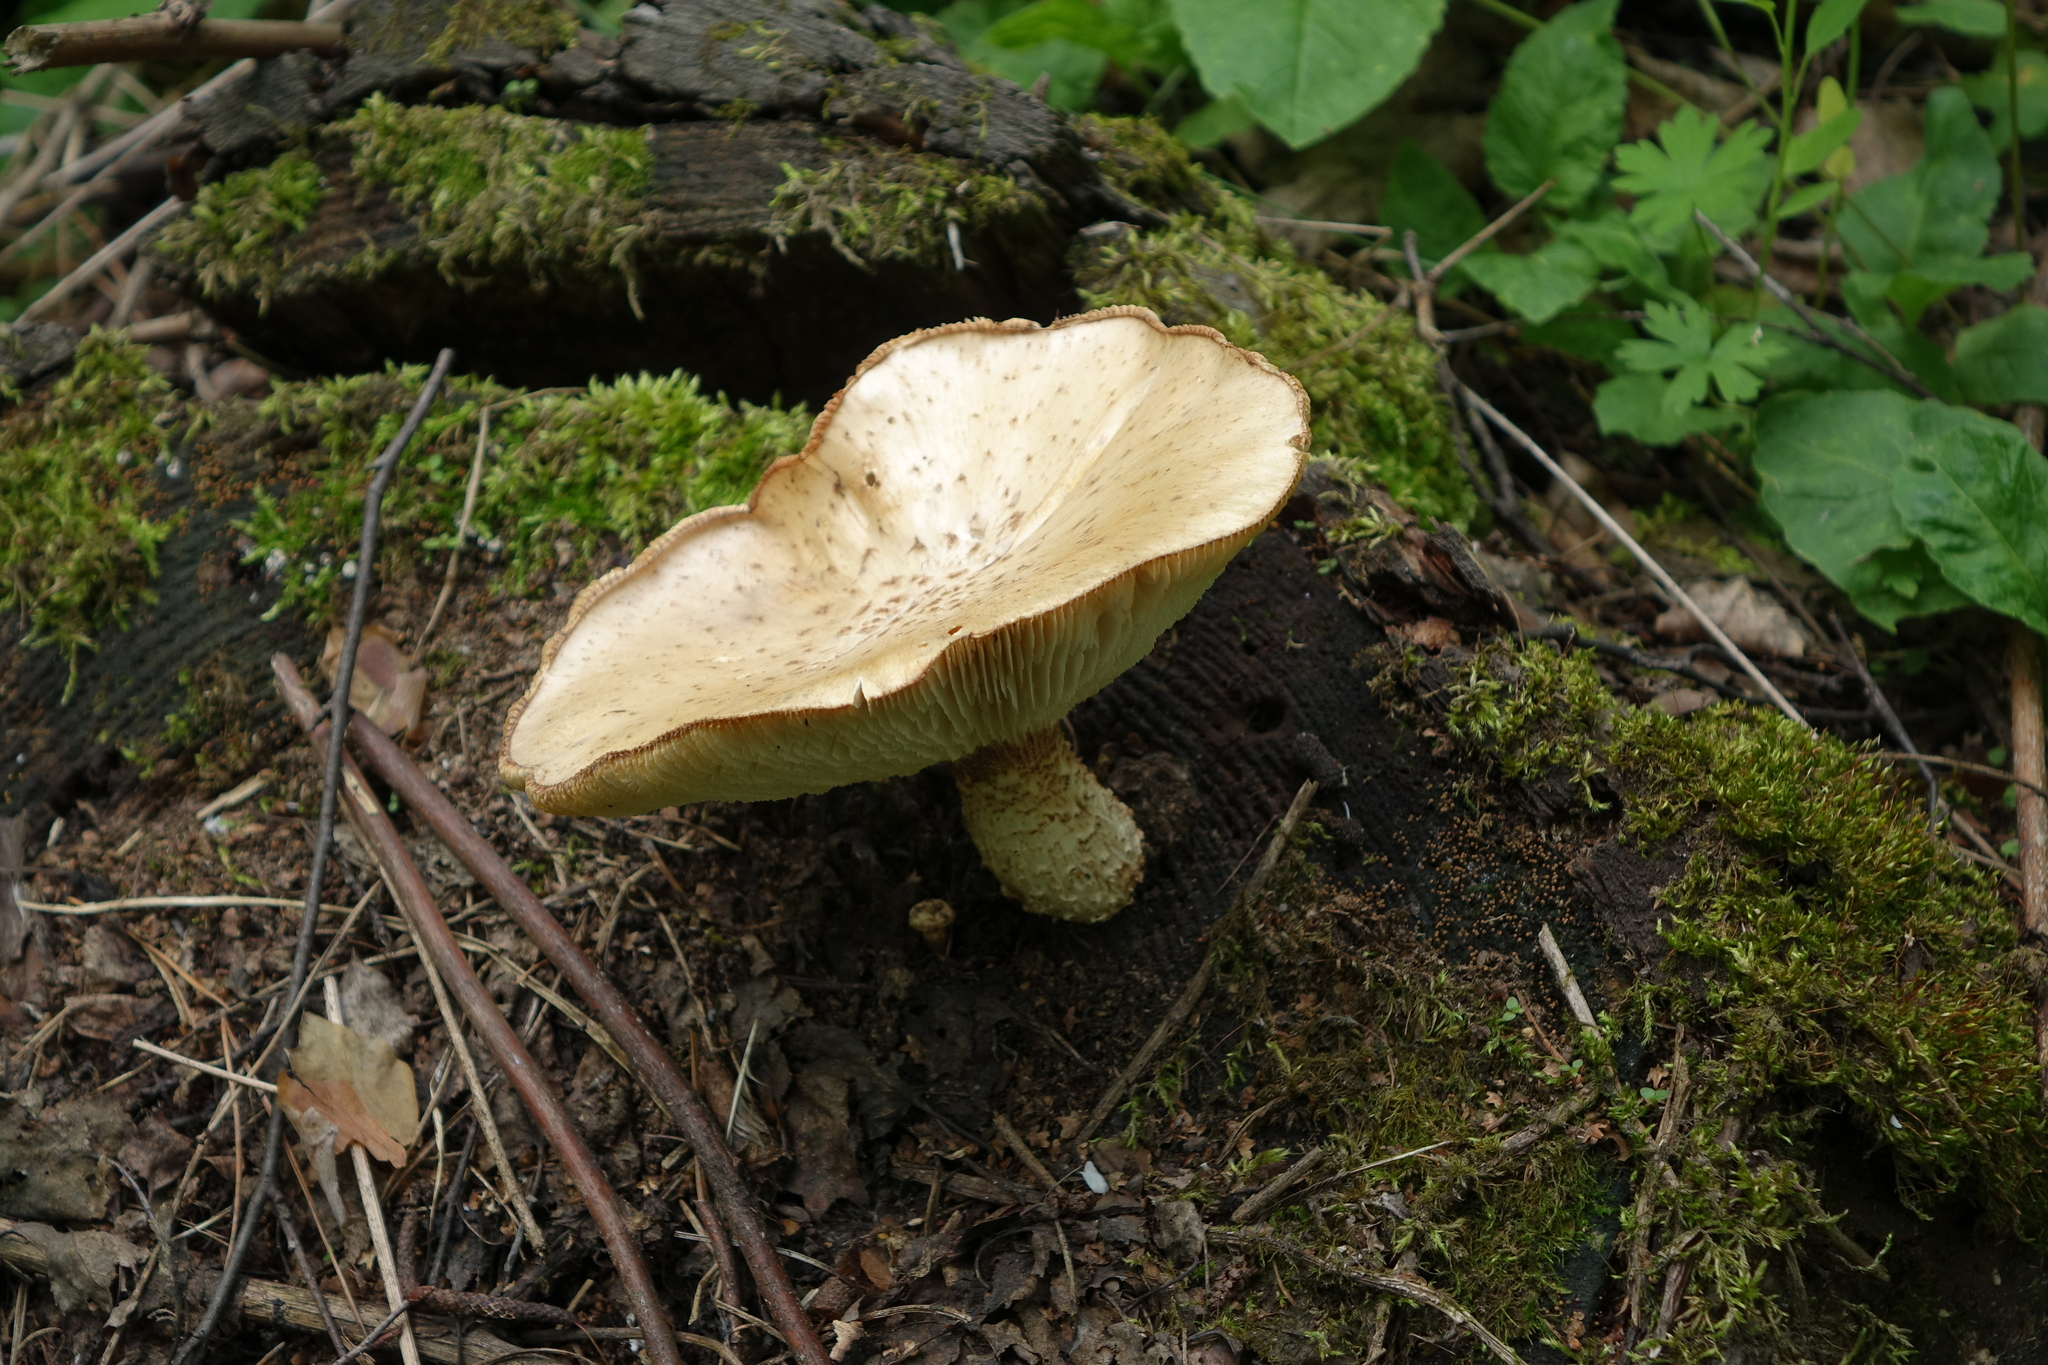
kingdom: Fungi
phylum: Basidiomycota
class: Agaricomycetes
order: Gloeophyllales
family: Gloeophyllaceae
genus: Neolentinus
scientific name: Neolentinus lepideus
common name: Scaly sawgill
